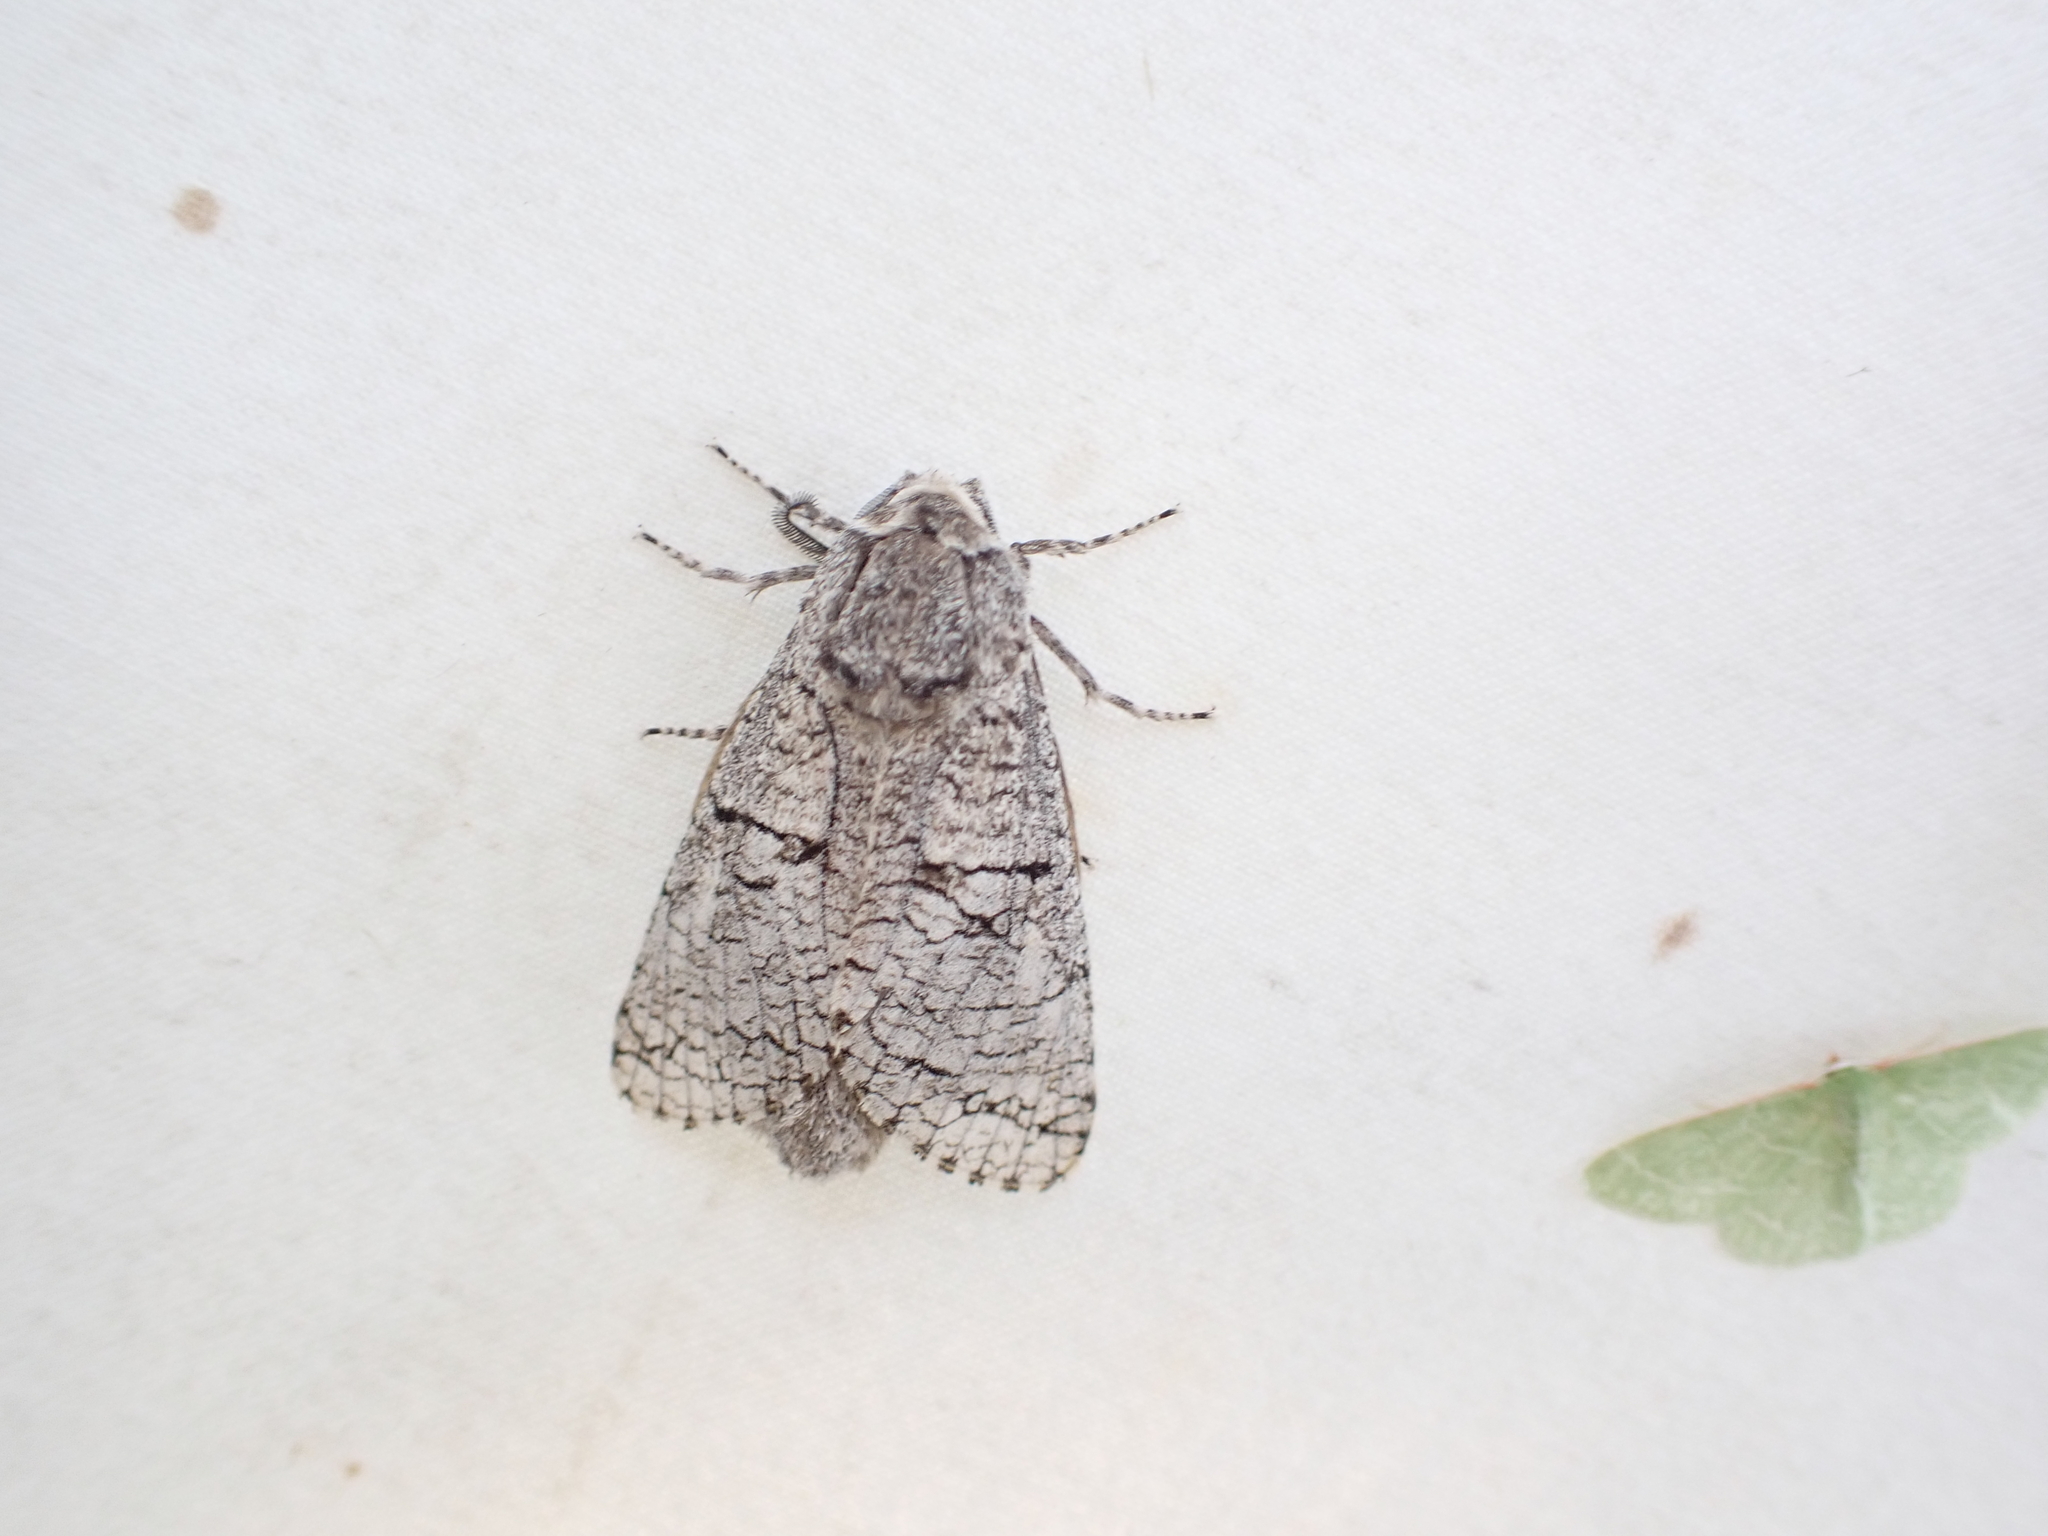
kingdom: Animalia
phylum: Arthropoda
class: Insecta
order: Lepidoptera
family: Cossidae
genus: Acossus
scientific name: Acossus populi
